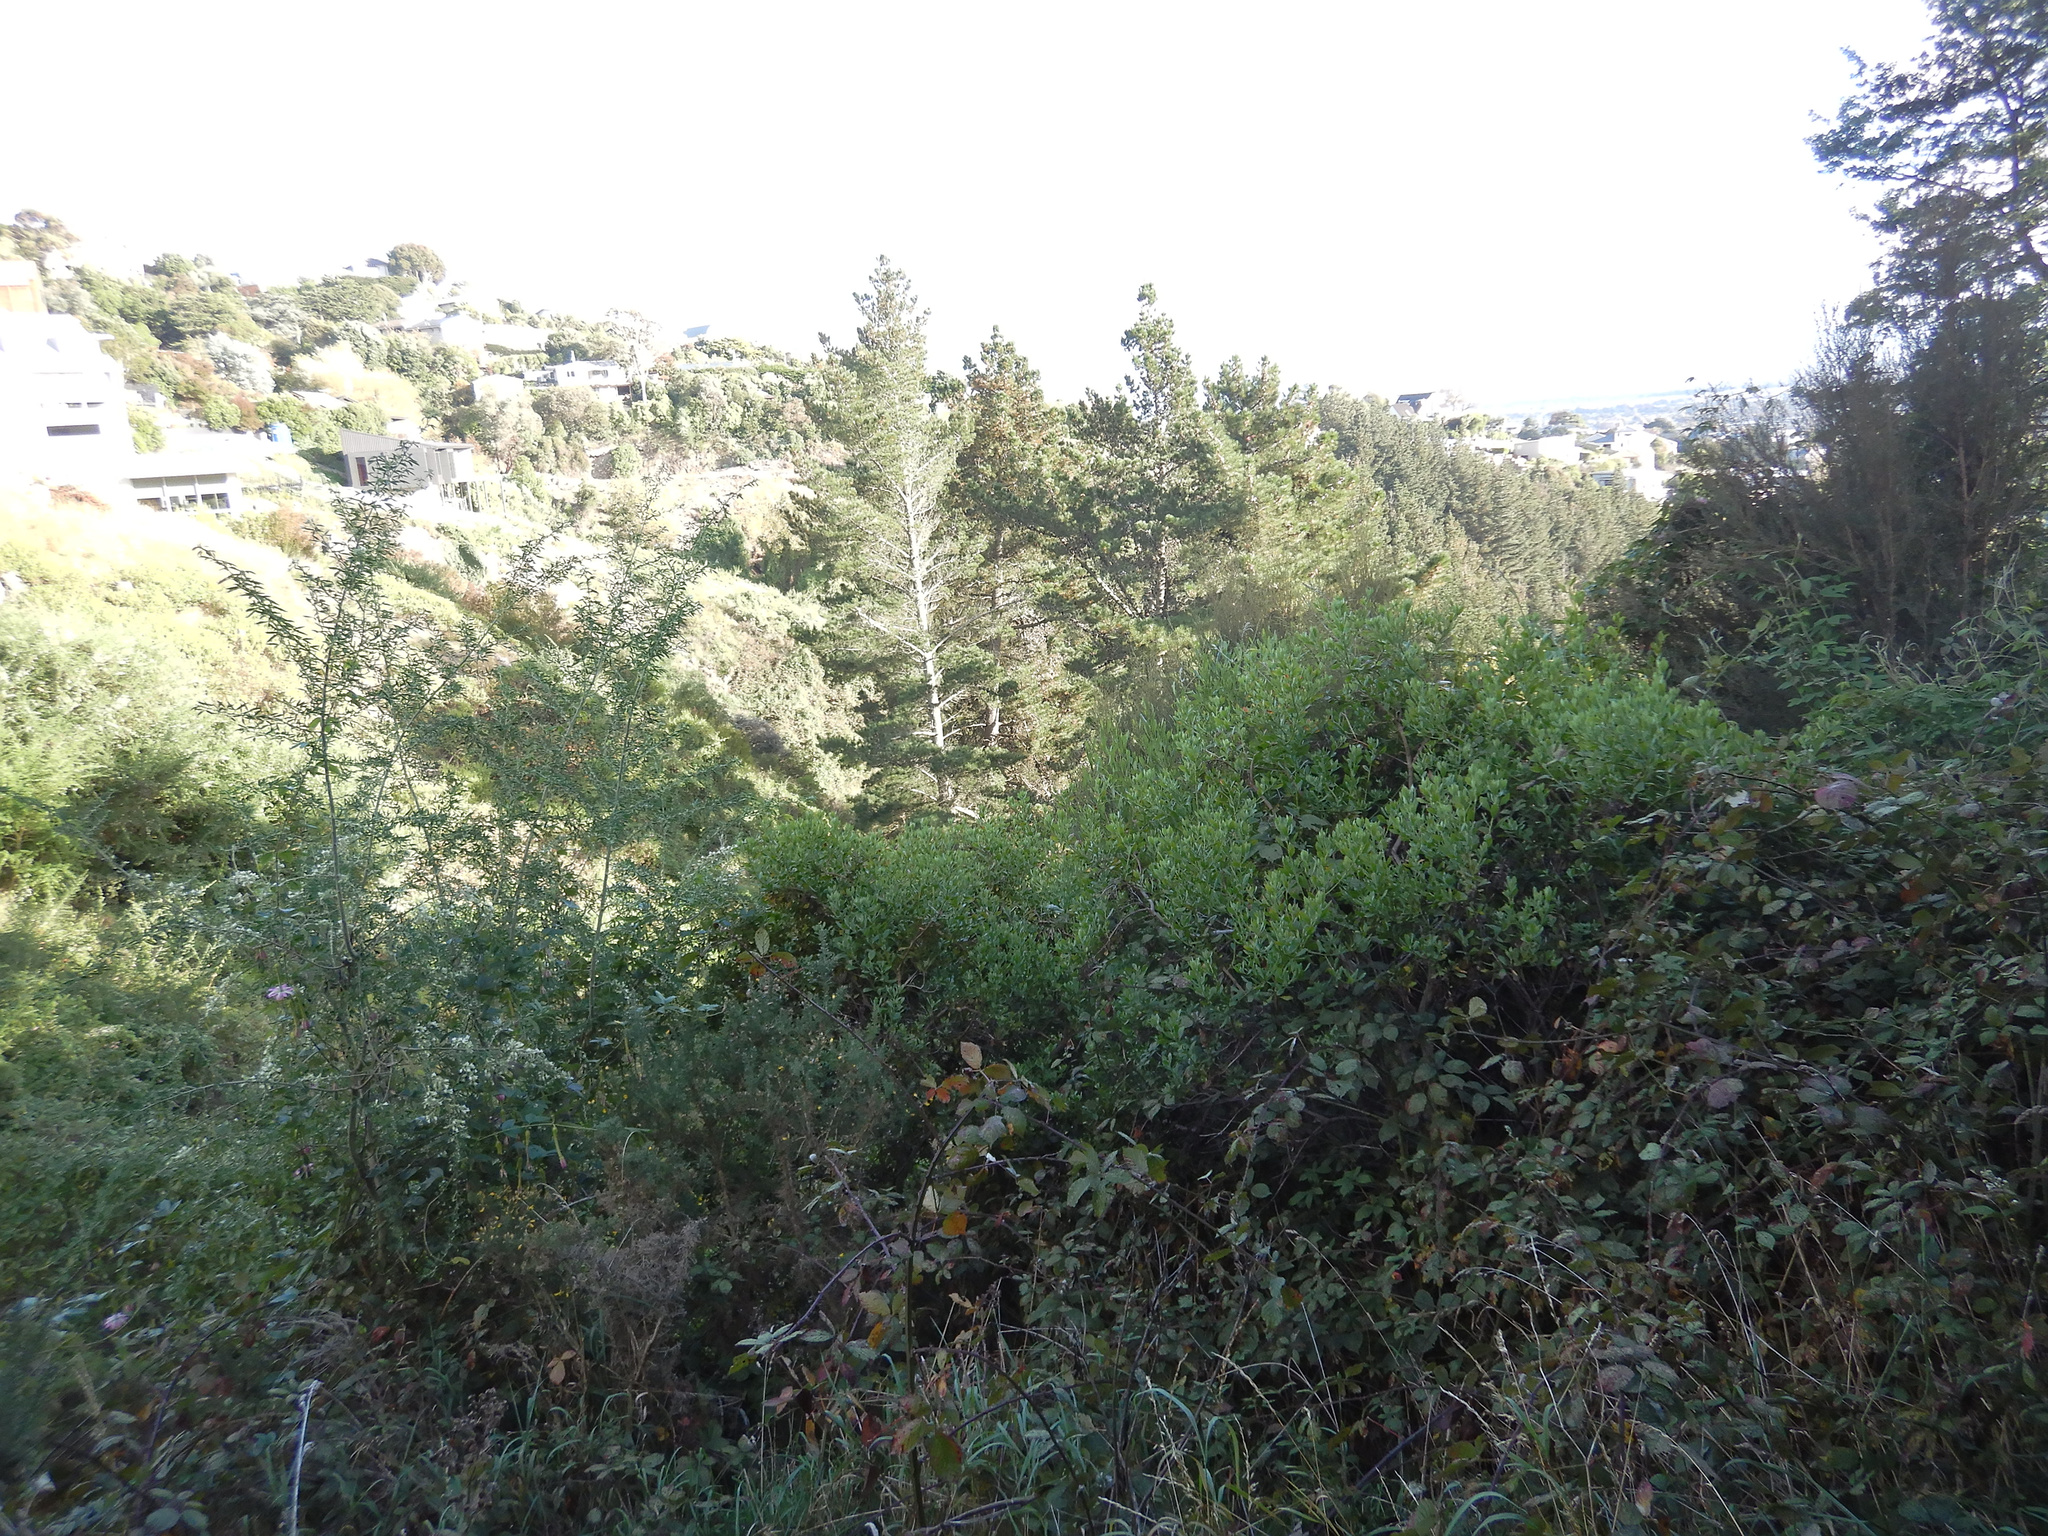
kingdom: Plantae
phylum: Tracheophyta
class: Magnoliopsida
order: Asterales
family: Asteraceae
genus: Osteospermum
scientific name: Osteospermum moniliferum
